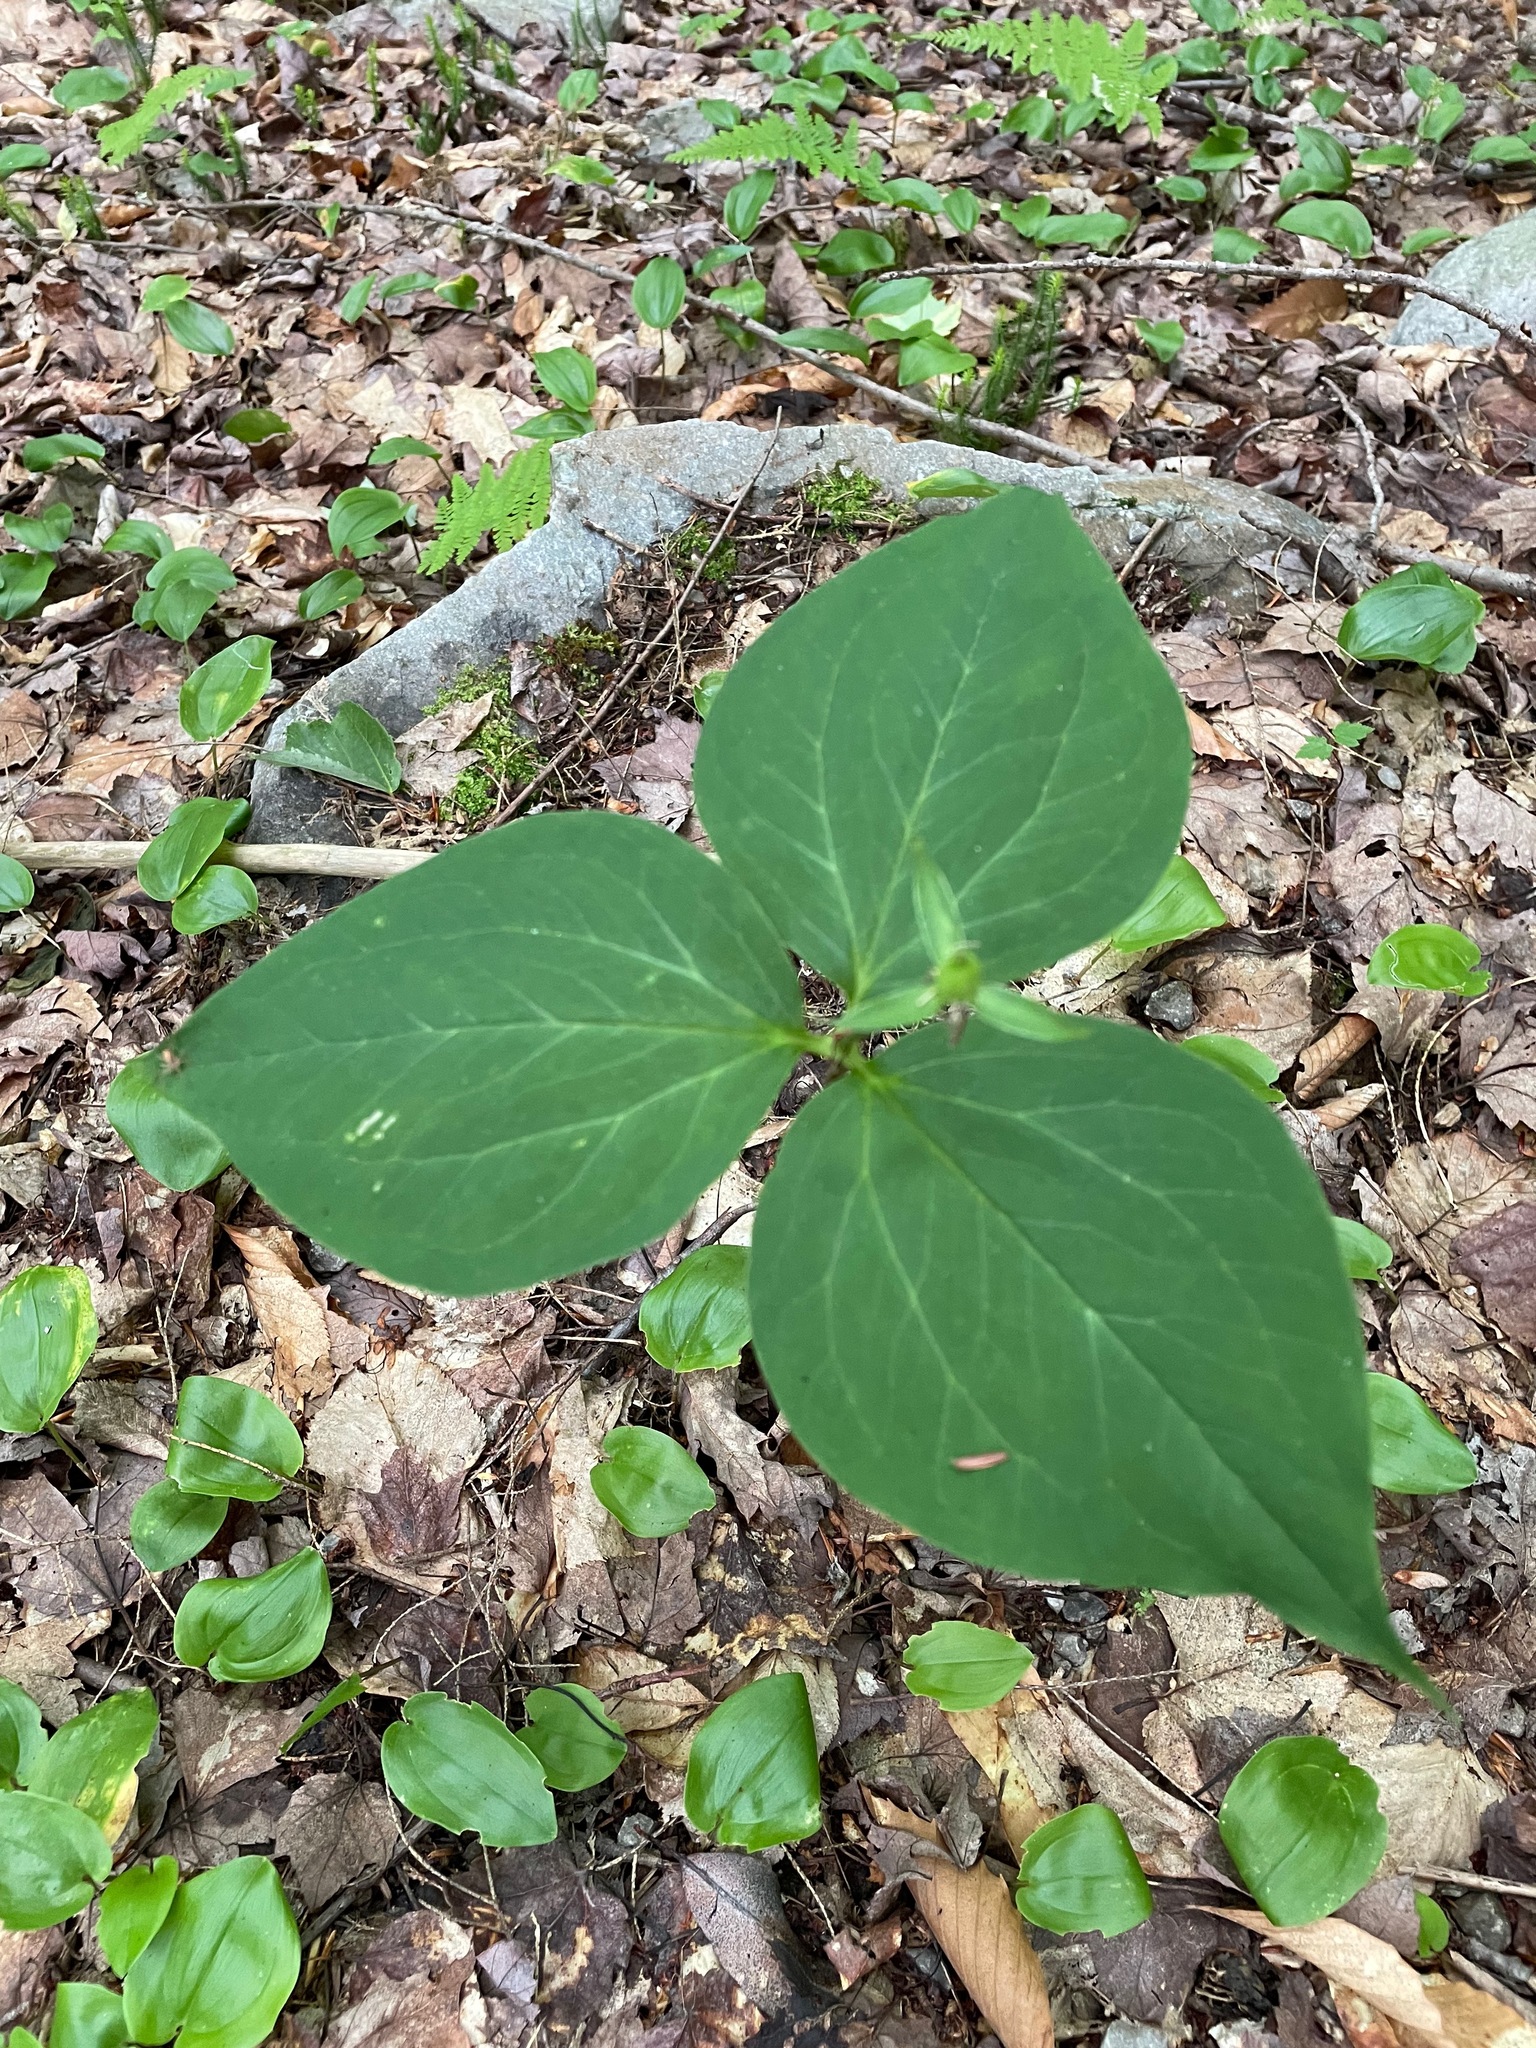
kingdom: Plantae
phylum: Tracheophyta
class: Liliopsida
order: Liliales
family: Melanthiaceae
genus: Trillium
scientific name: Trillium undulatum
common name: Paint trillium
